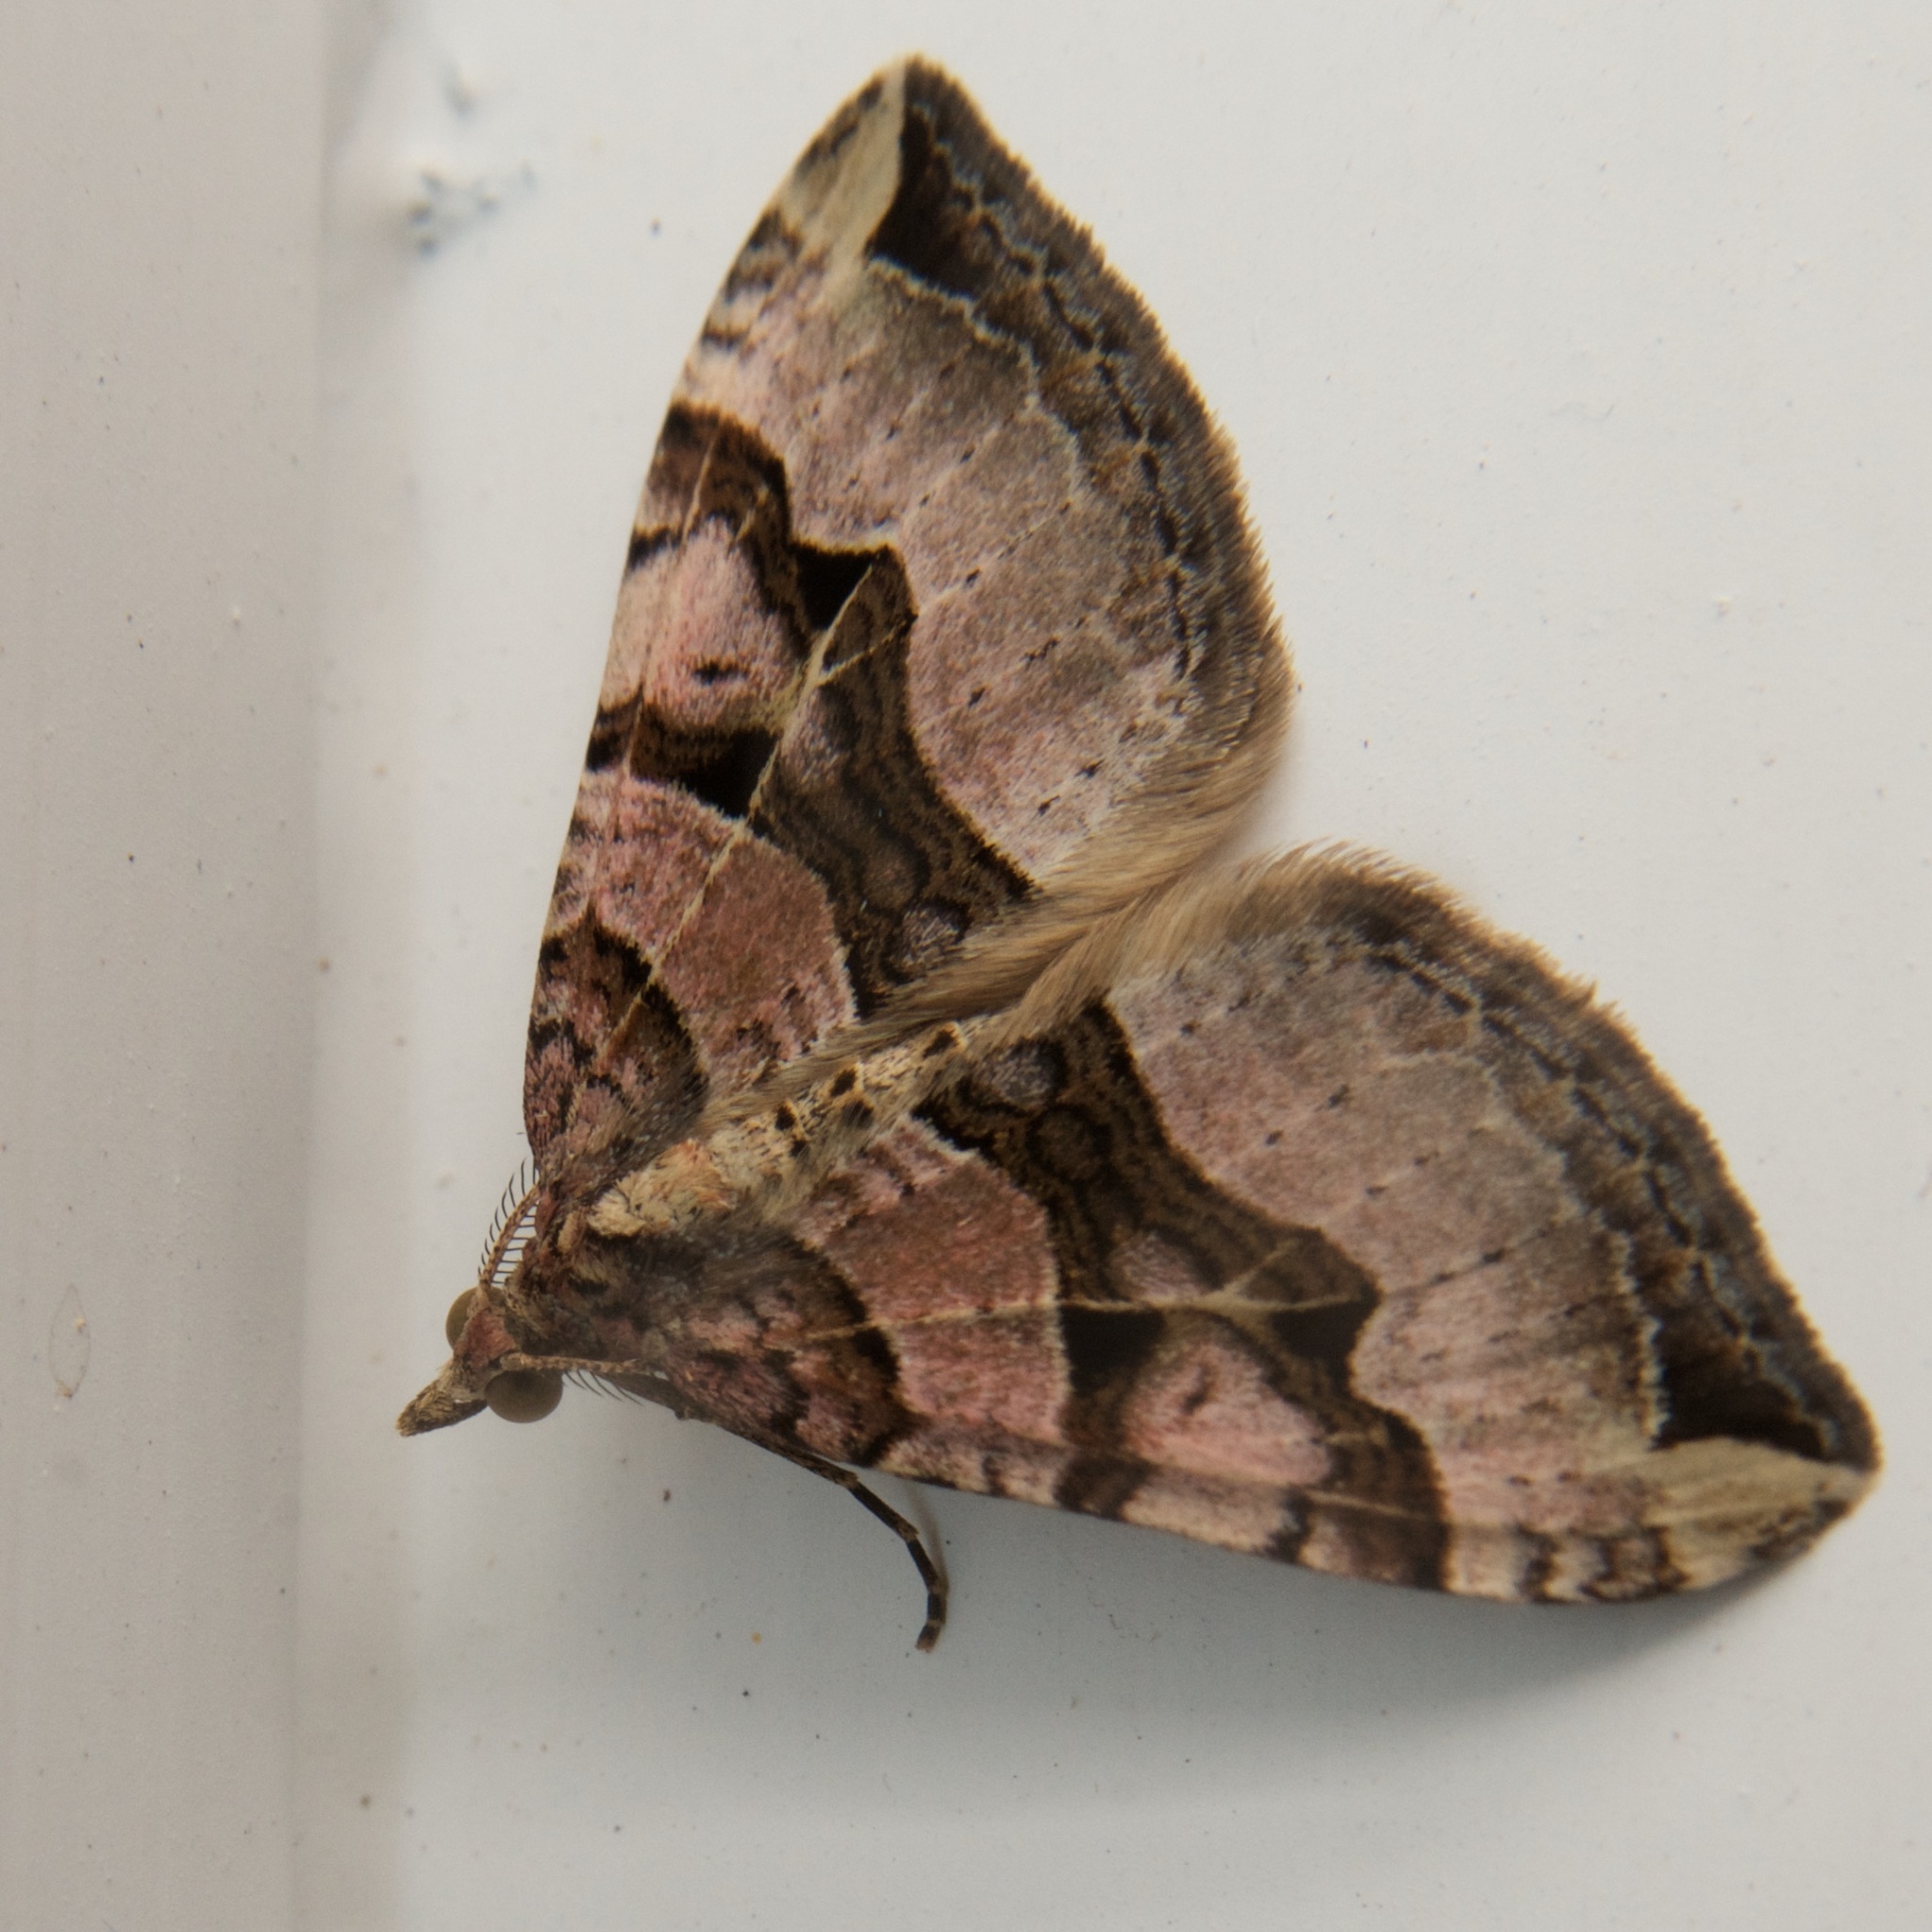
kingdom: Animalia
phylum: Arthropoda
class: Insecta
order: Lepidoptera
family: Geometridae
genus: Xanthorhoe
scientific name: Xanthorhoe semifissata
